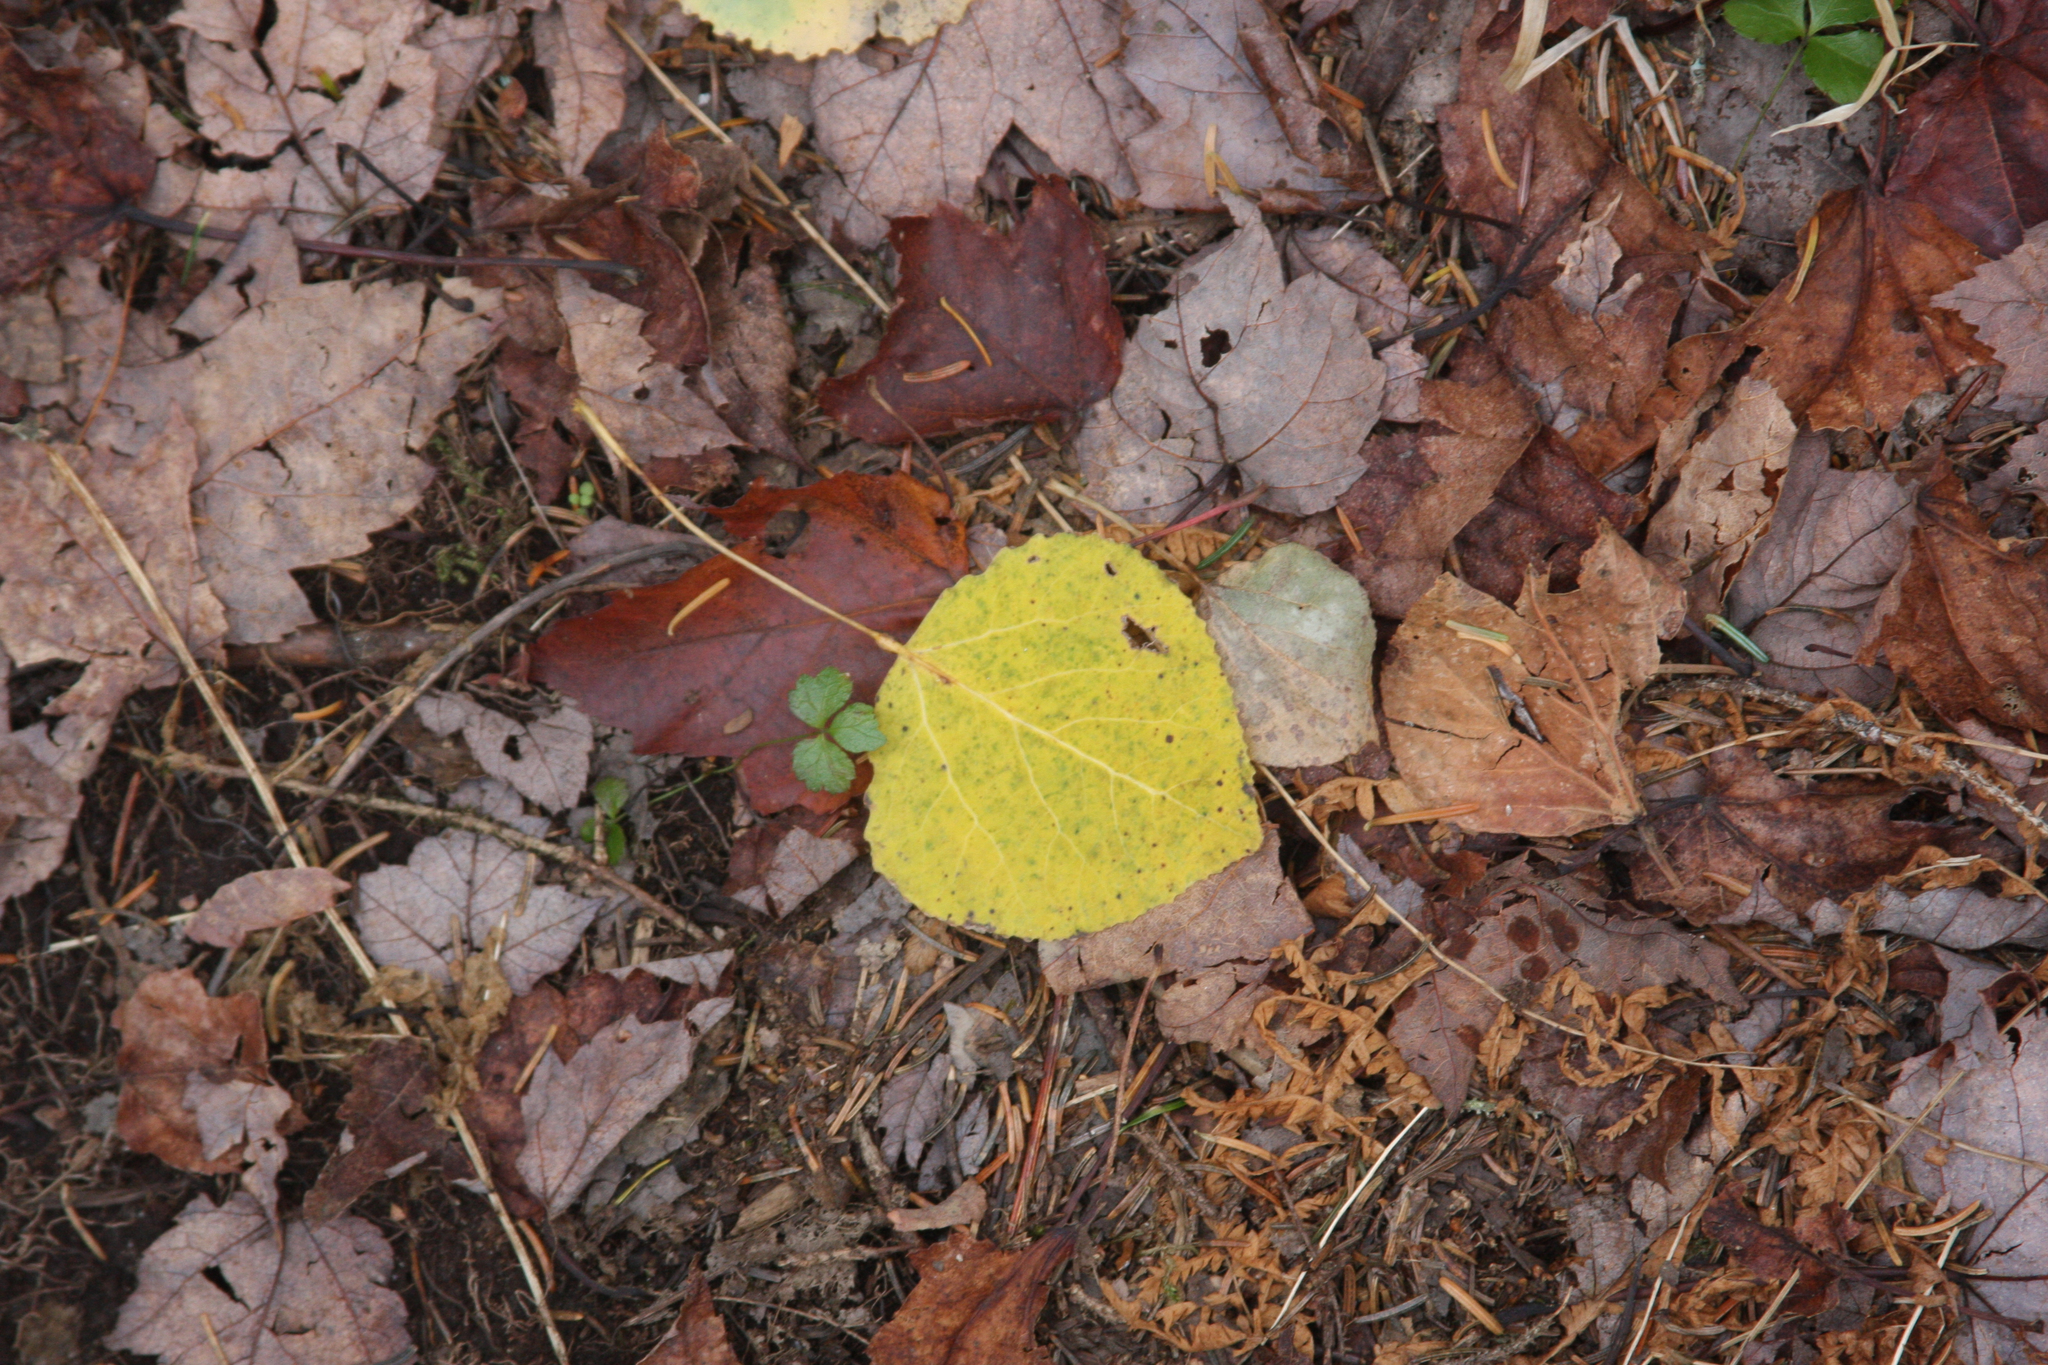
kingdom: Plantae
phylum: Tracheophyta
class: Magnoliopsida
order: Malpighiales
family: Salicaceae
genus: Populus
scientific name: Populus tremuloides
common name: Quaking aspen
